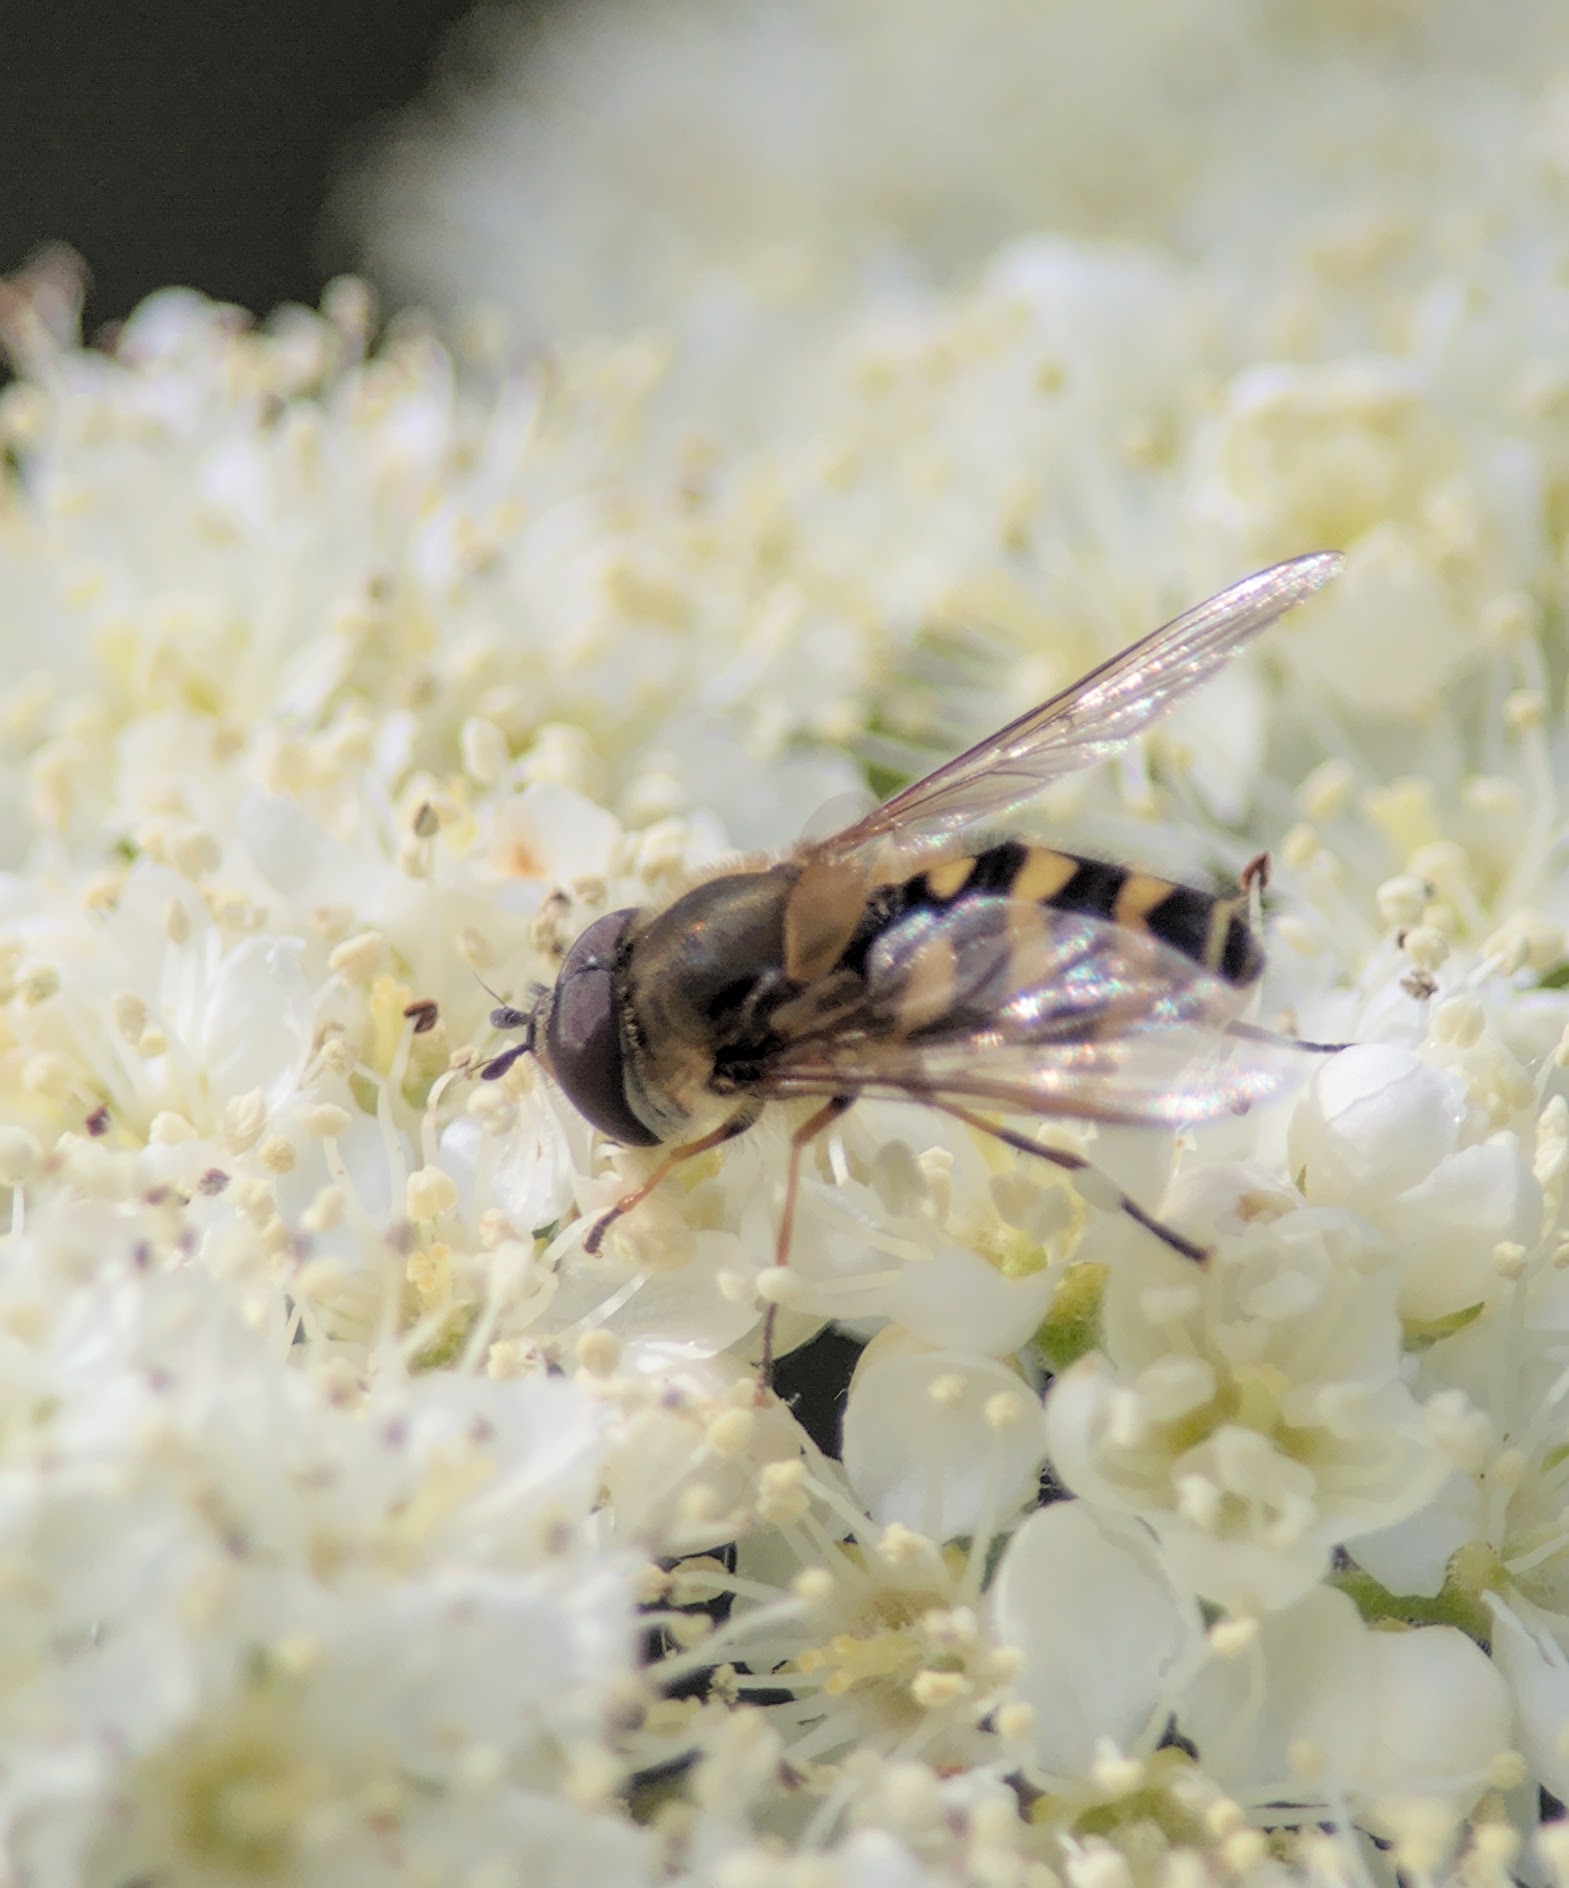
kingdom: Animalia
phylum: Arthropoda
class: Insecta
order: Diptera
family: Syrphidae
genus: Syrphus
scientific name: Syrphus torvus
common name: Hairy-eyed flower fly
